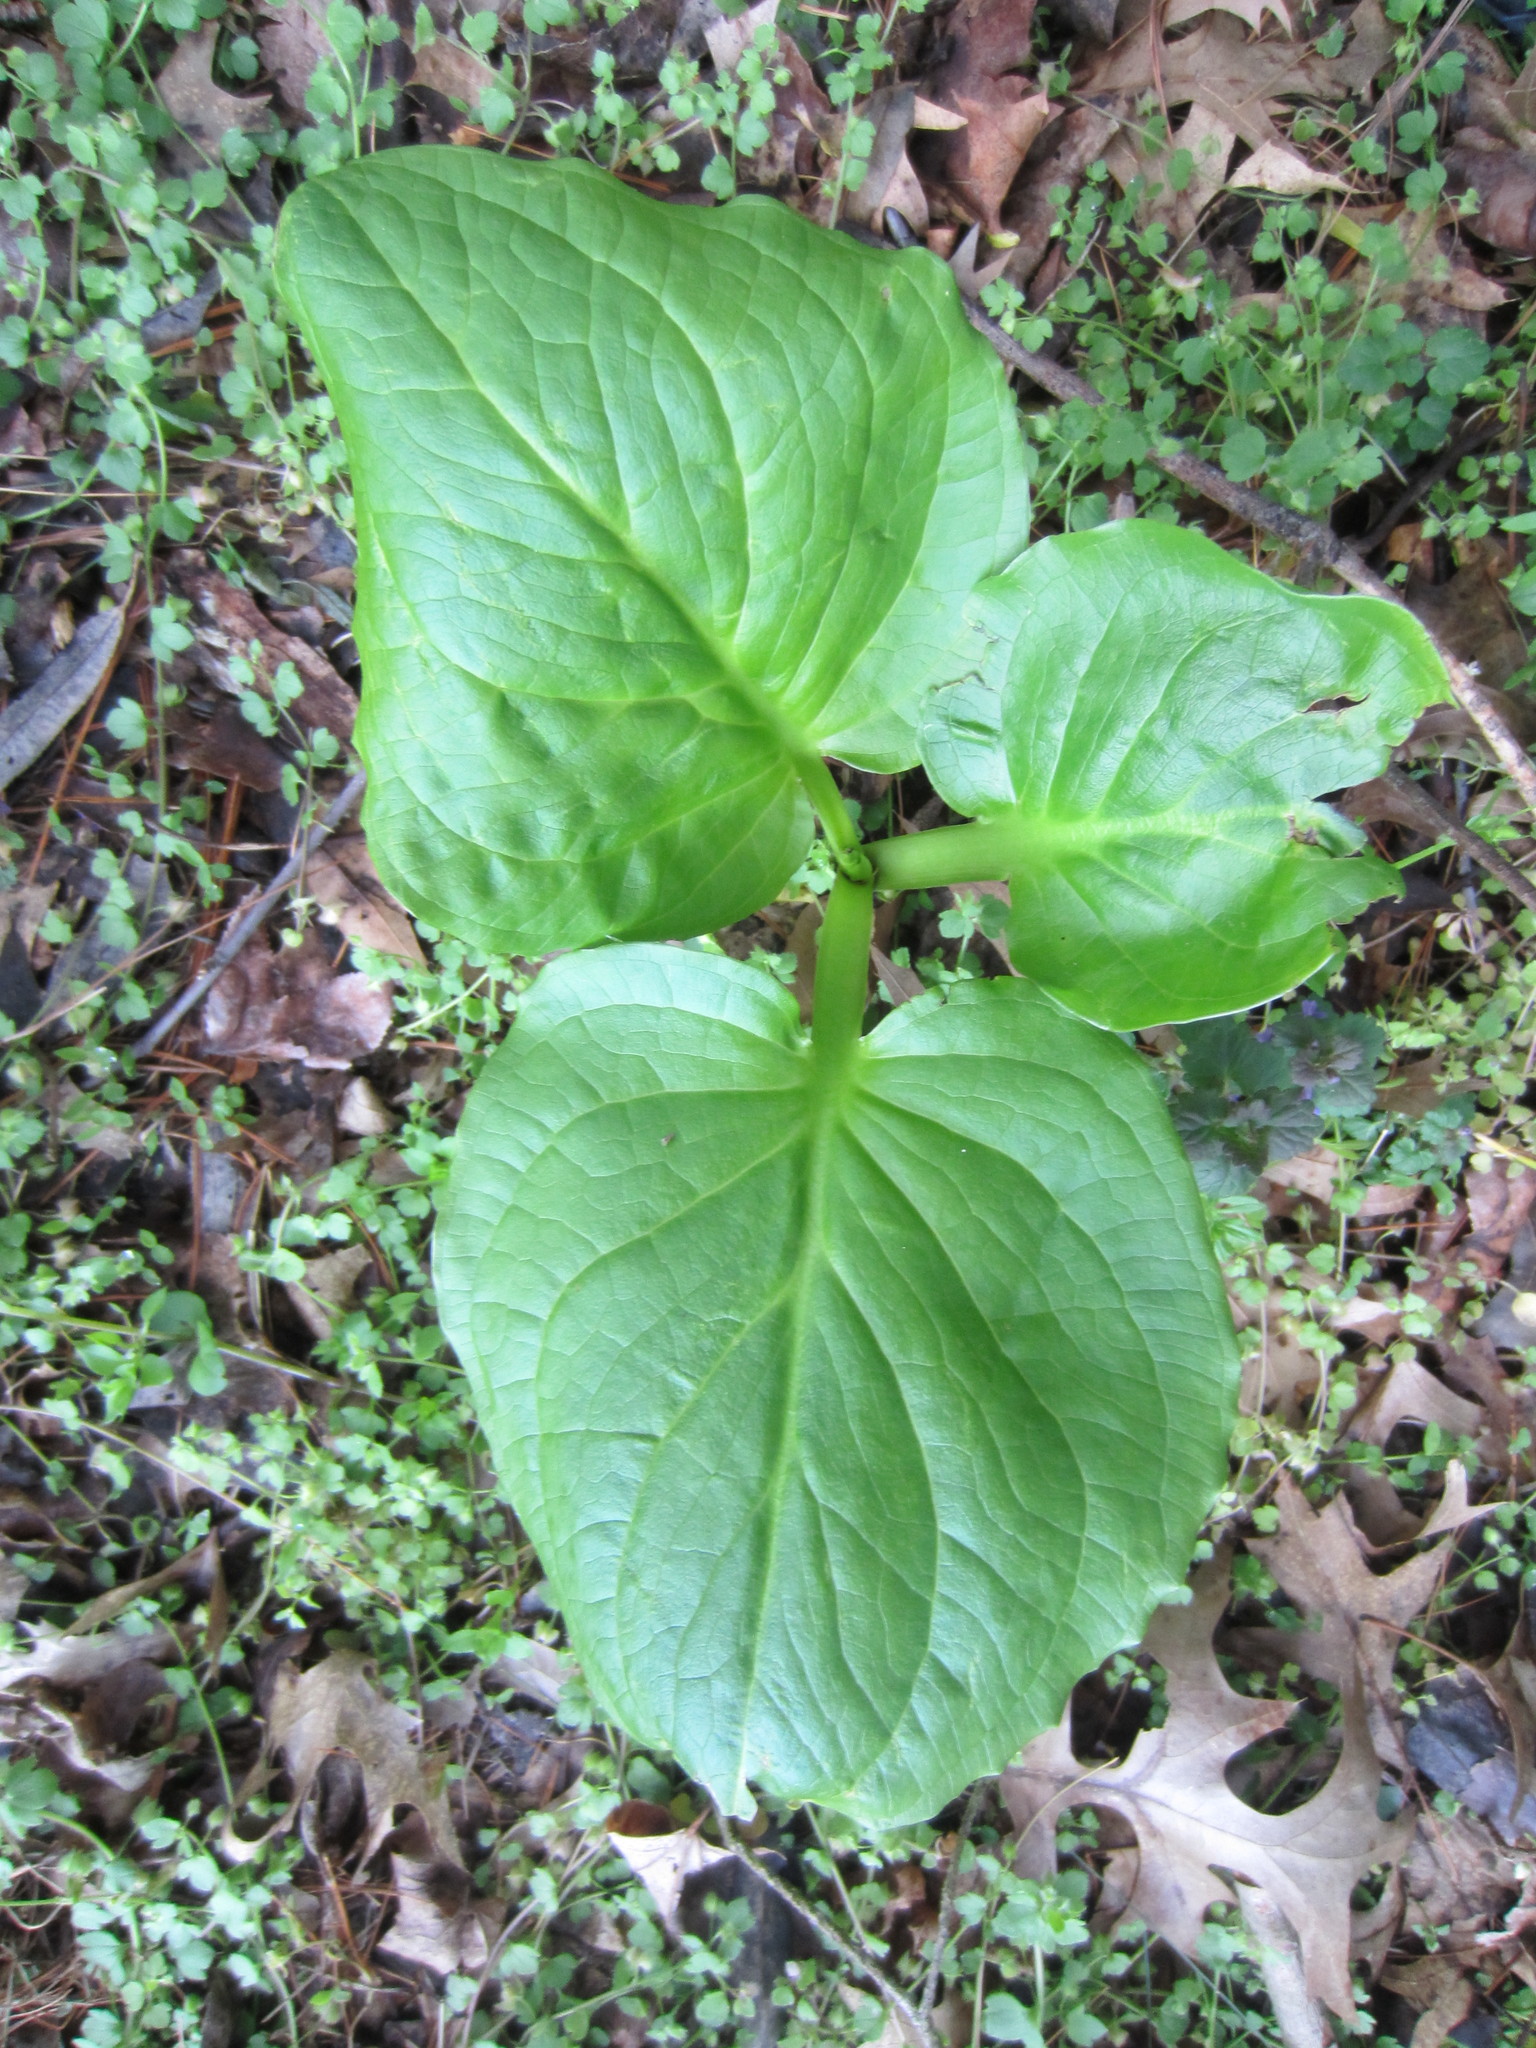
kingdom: Plantae
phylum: Tracheophyta
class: Liliopsida
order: Alismatales
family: Araceae
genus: Symplocarpus
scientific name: Symplocarpus foetidus
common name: Eastern skunk cabbage
